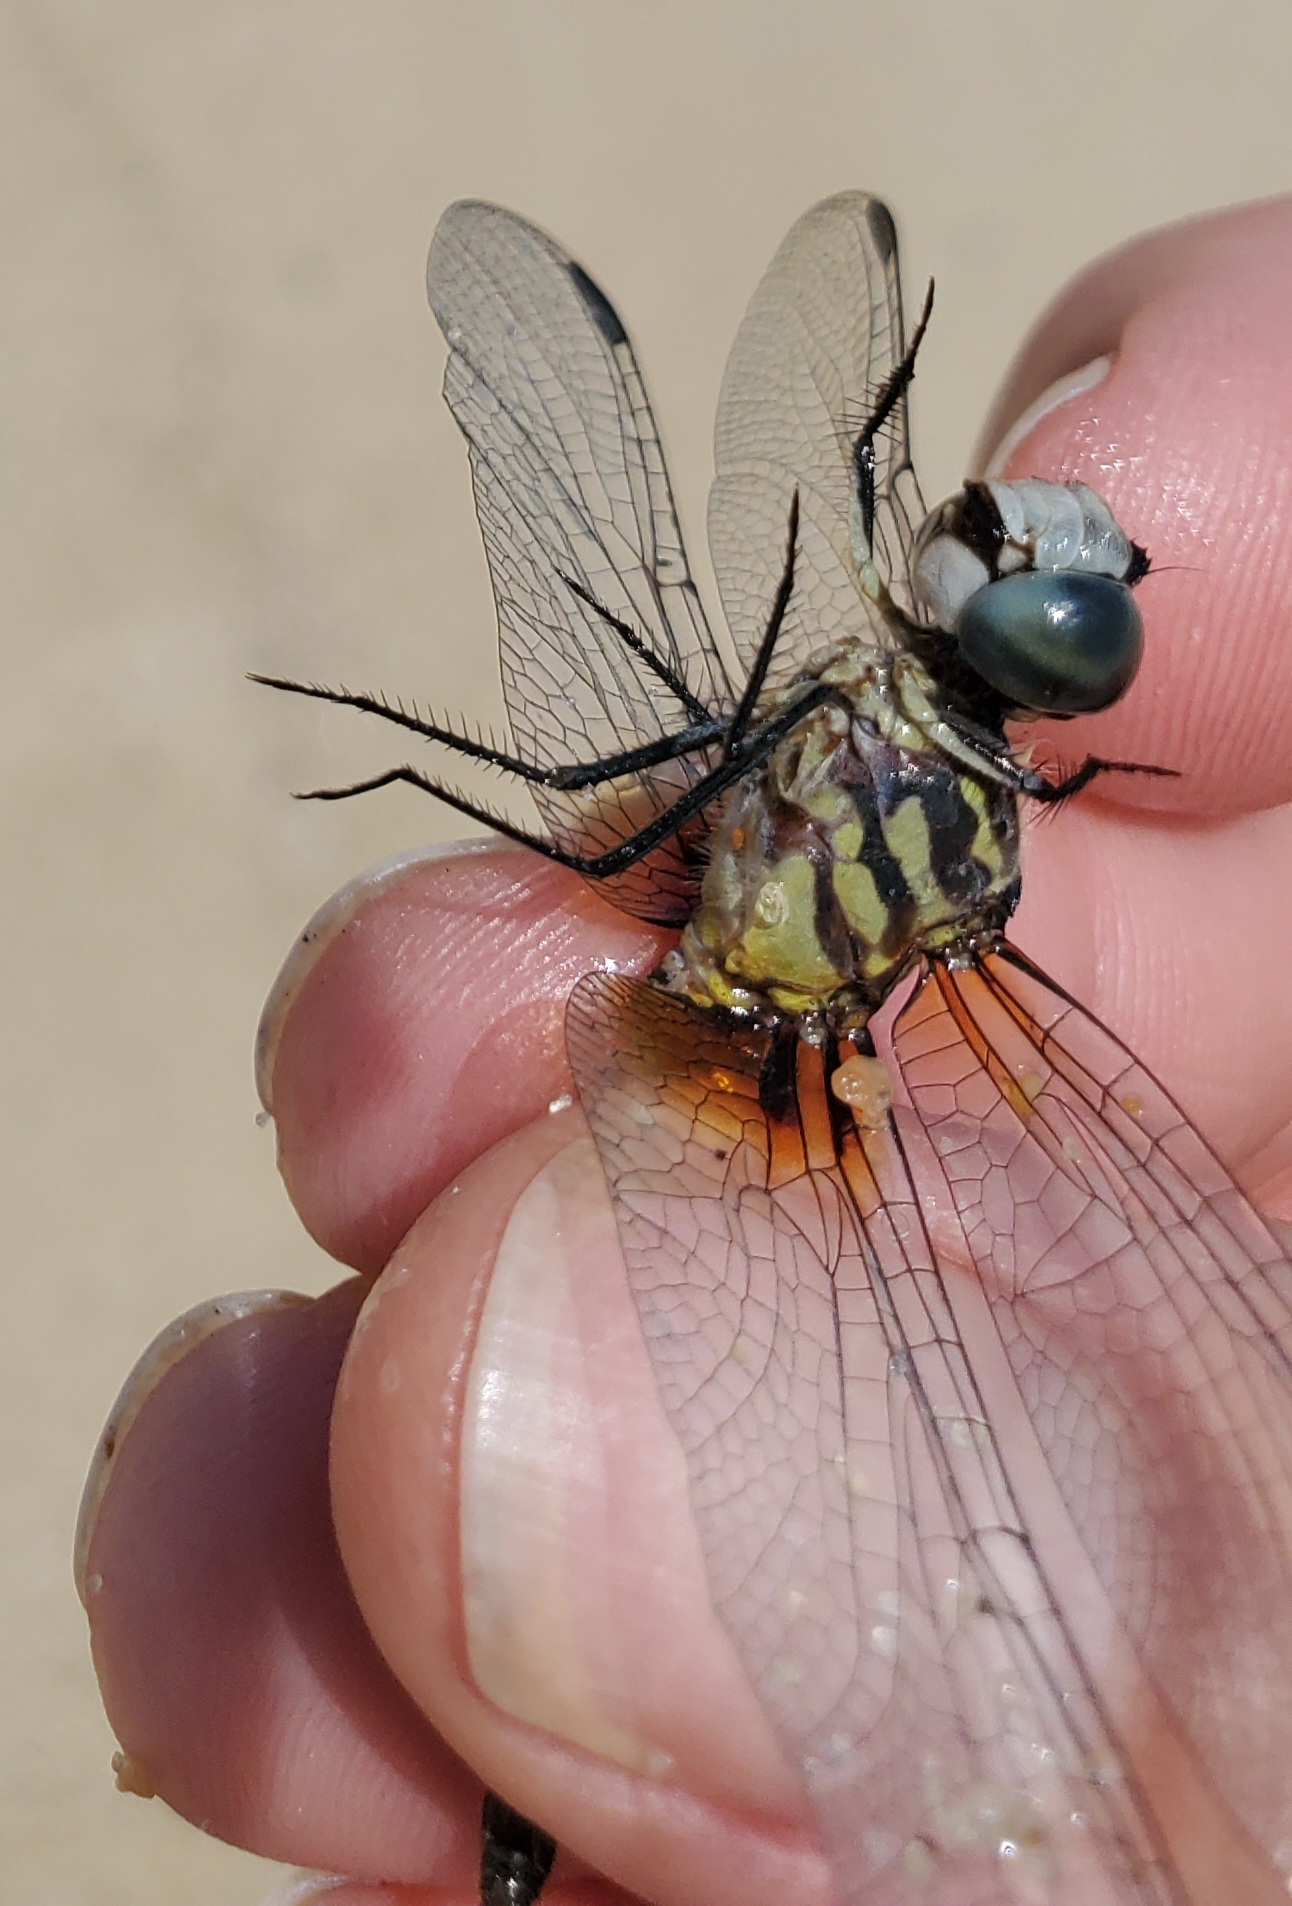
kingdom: Animalia
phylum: Arthropoda
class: Insecta
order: Odonata
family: Libellulidae
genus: Pachydiplax
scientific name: Pachydiplax longipennis
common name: Blue dasher
